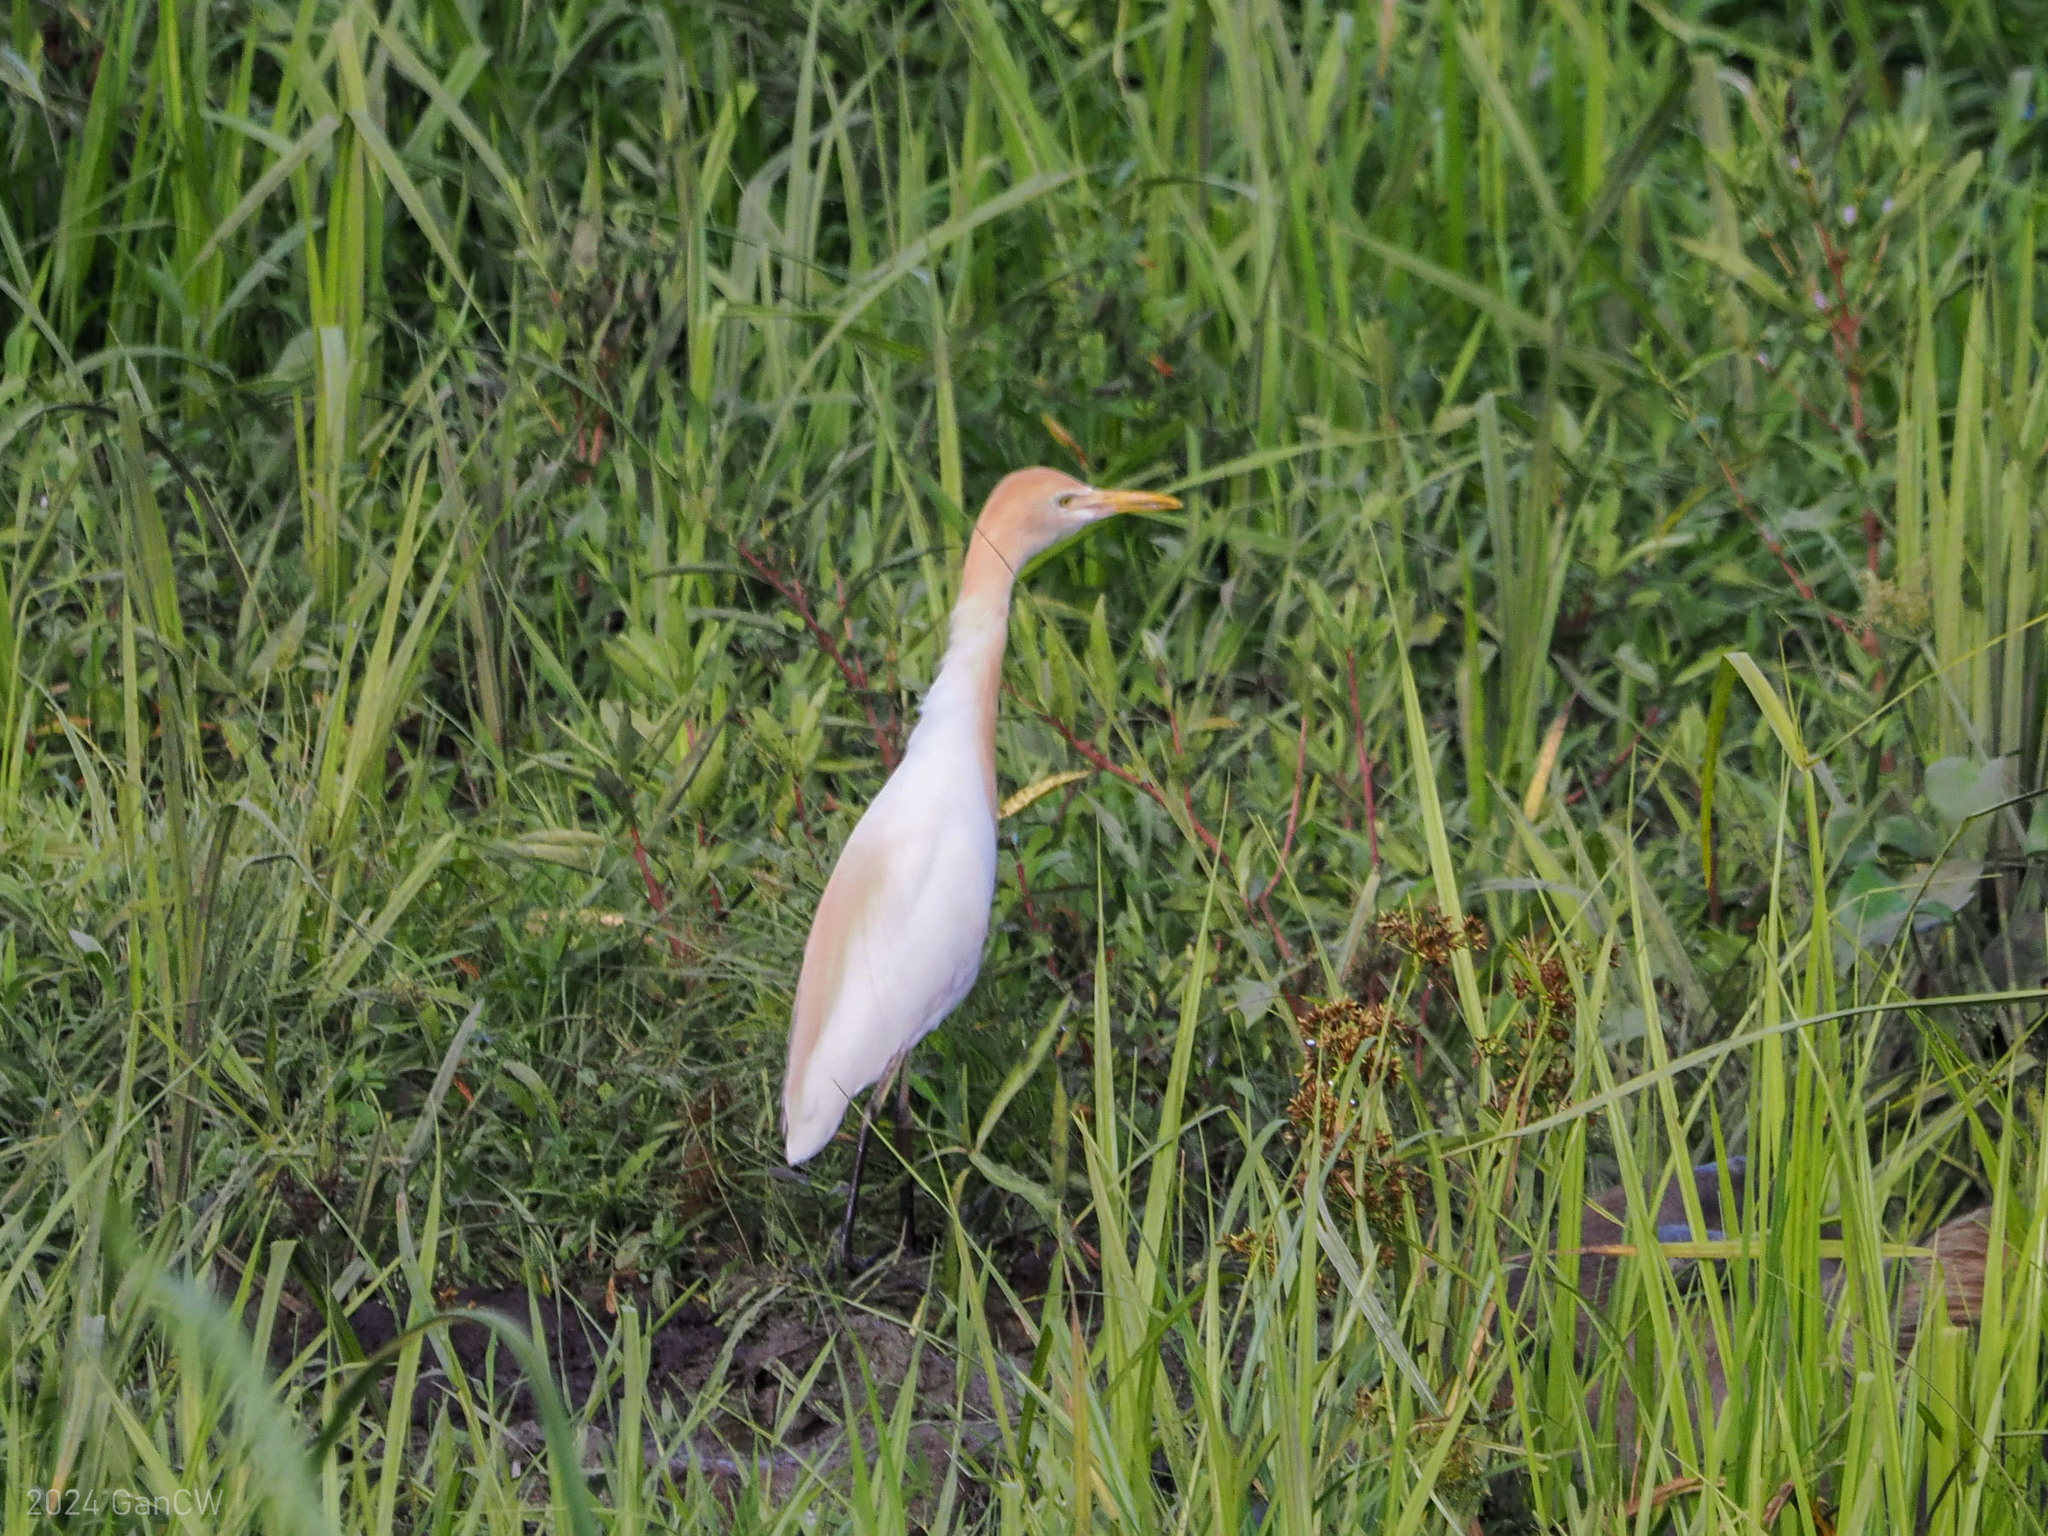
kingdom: Animalia
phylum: Chordata
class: Aves
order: Pelecaniformes
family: Ardeidae
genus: Bubulcus
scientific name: Bubulcus coromandus
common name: Eastern cattle egret
